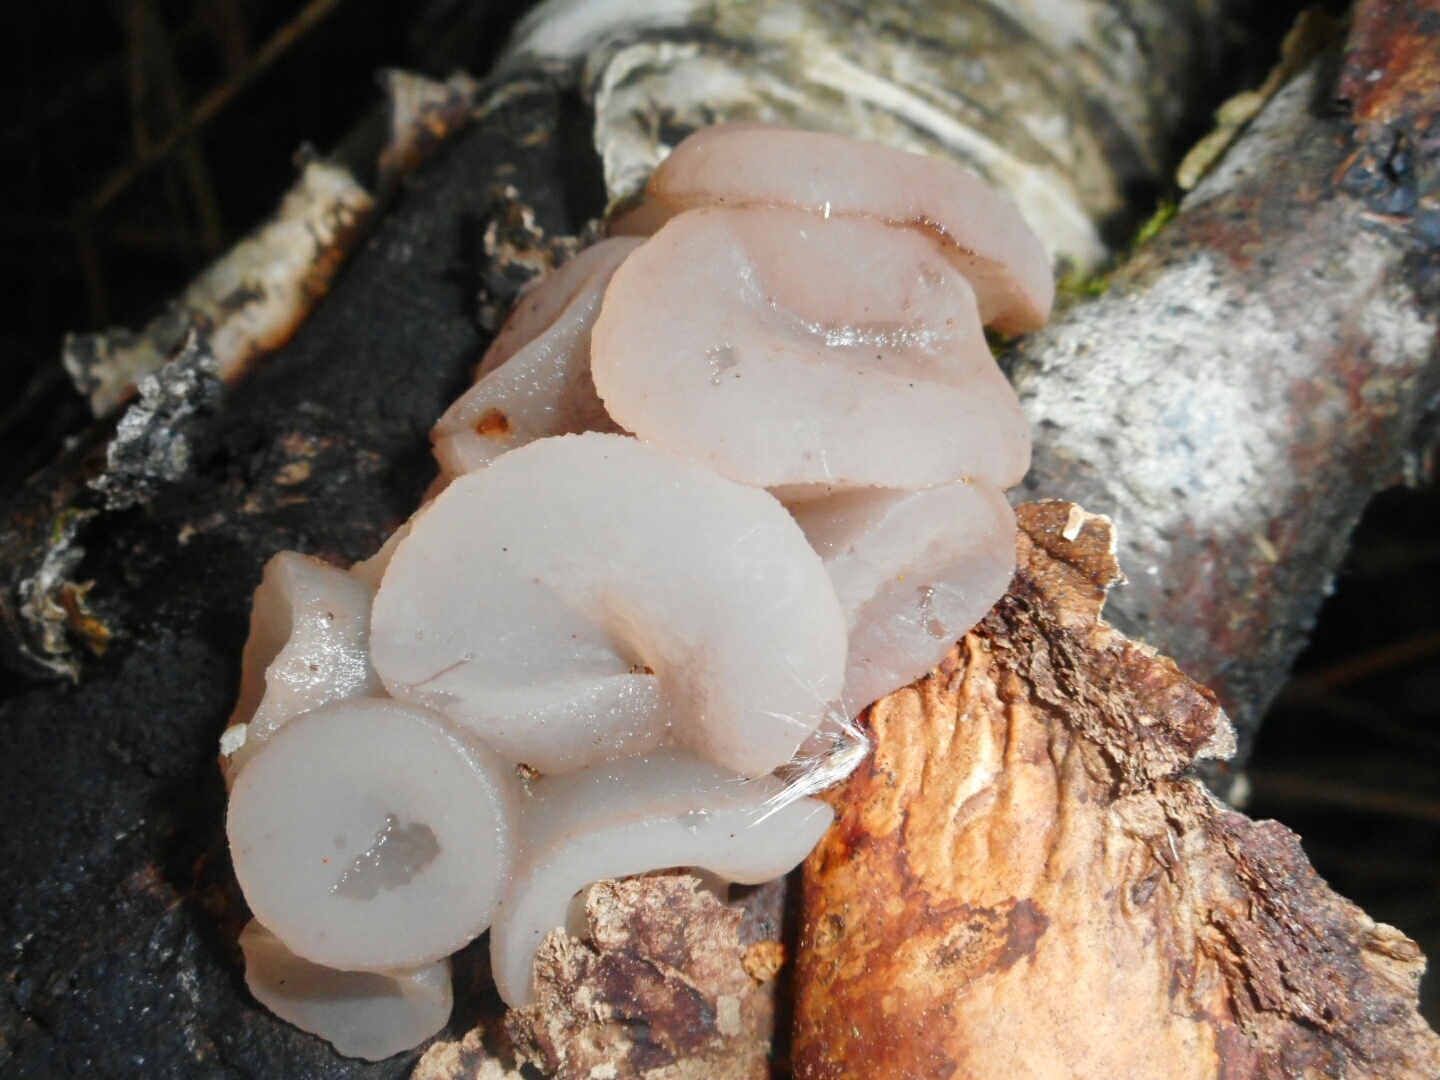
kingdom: Fungi
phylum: Ascomycota
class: Leotiomycetes
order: Helotiales
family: Gelatinodiscaceae
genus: Neobulgaria
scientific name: Neobulgaria pura
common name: Beech jelly-disc
